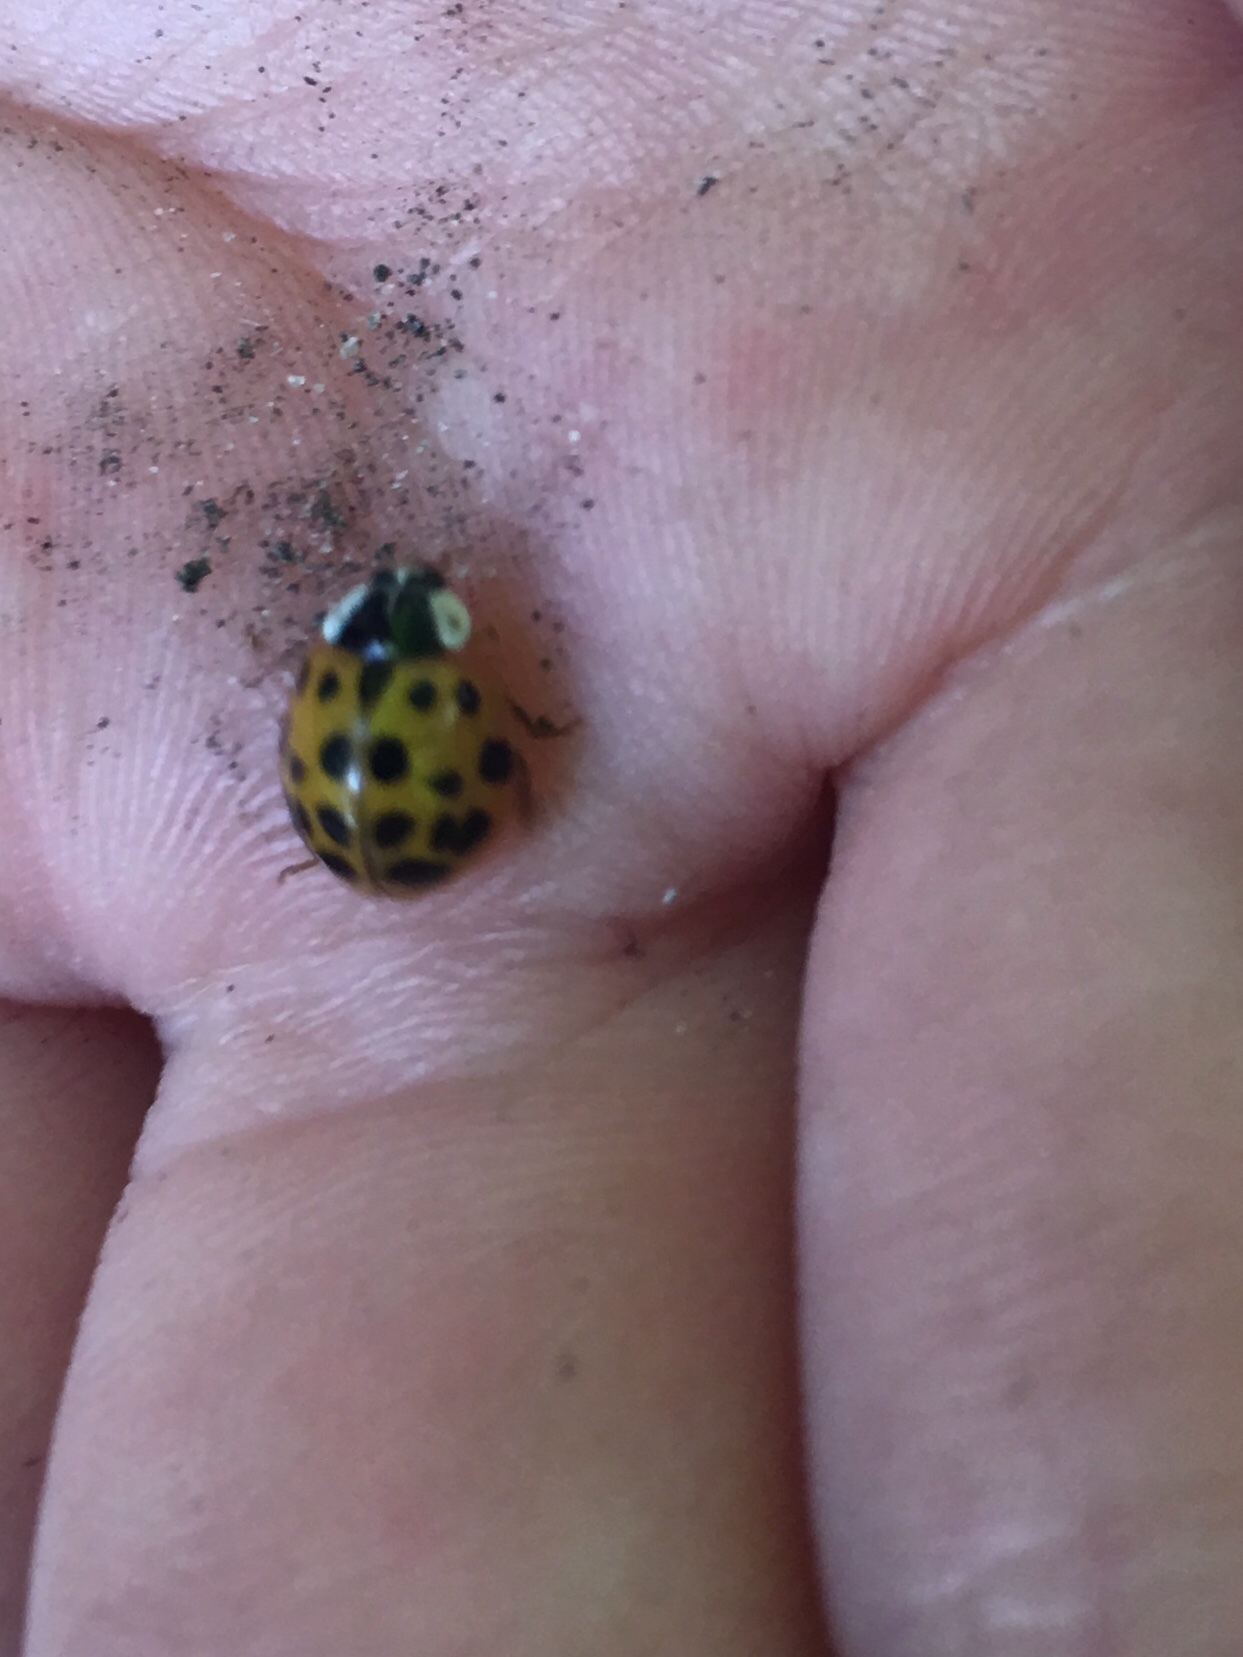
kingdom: Animalia
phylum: Arthropoda
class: Insecta
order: Coleoptera
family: Coccinellidae
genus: Harmonia
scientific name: Harmonia axyridis
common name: Harlequin ladybird
